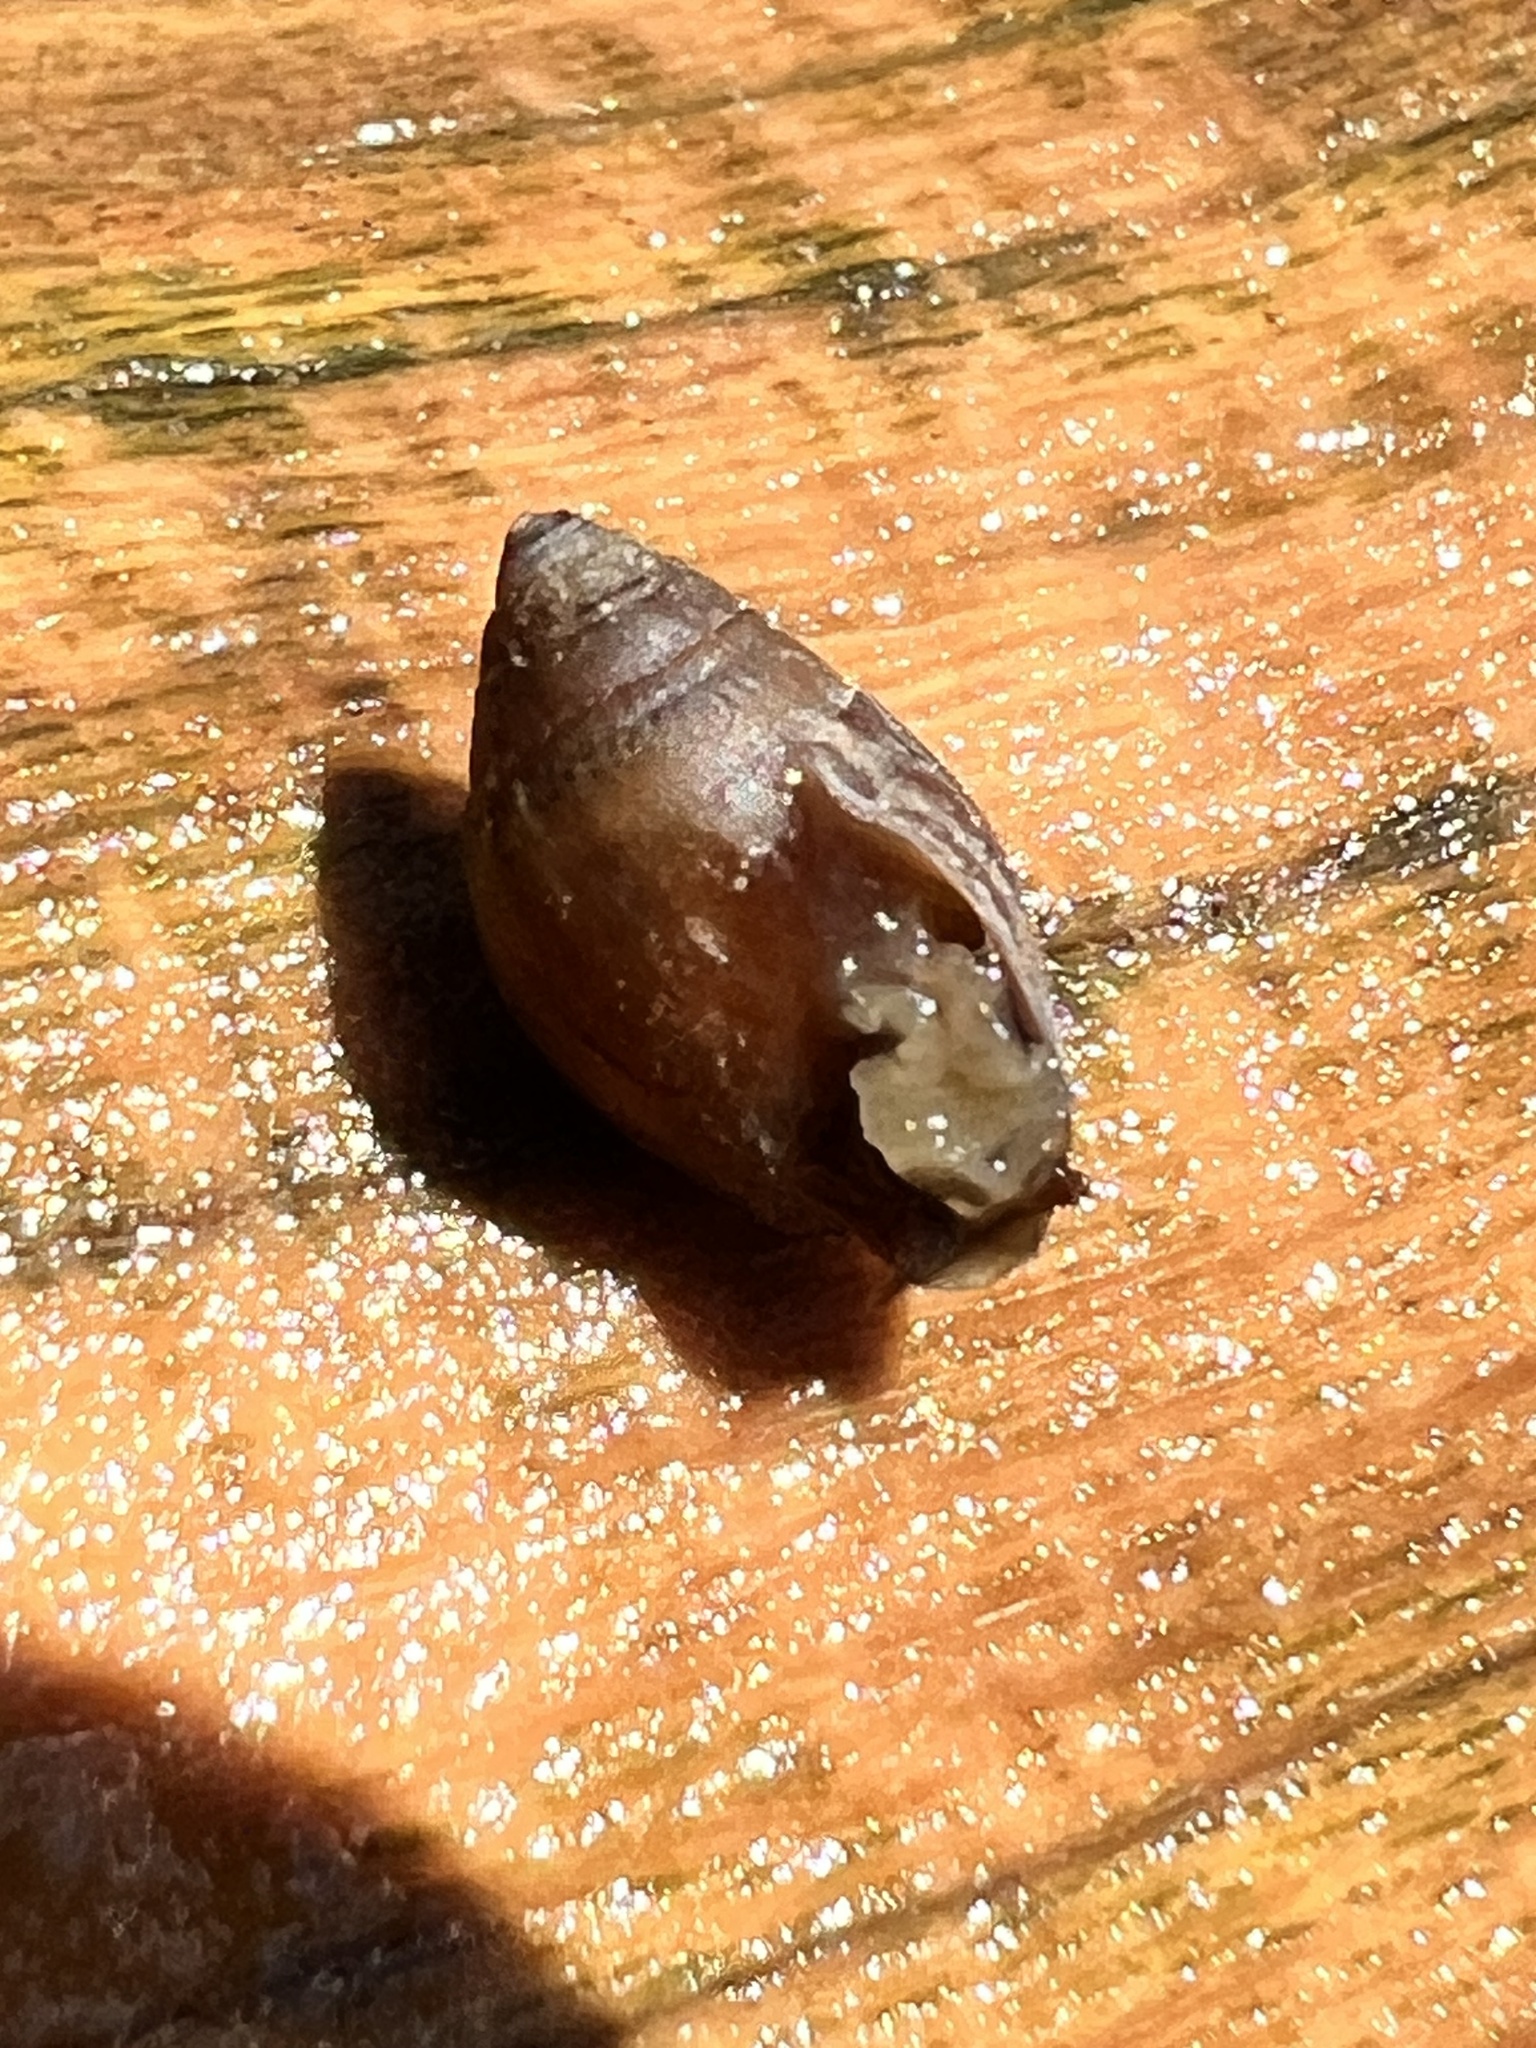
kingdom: Animalia
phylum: Mollusca
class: Gastropoda
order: Ellobiida
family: Ellobiidae
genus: Pleuroloba
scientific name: Pleuroloba costellaris
